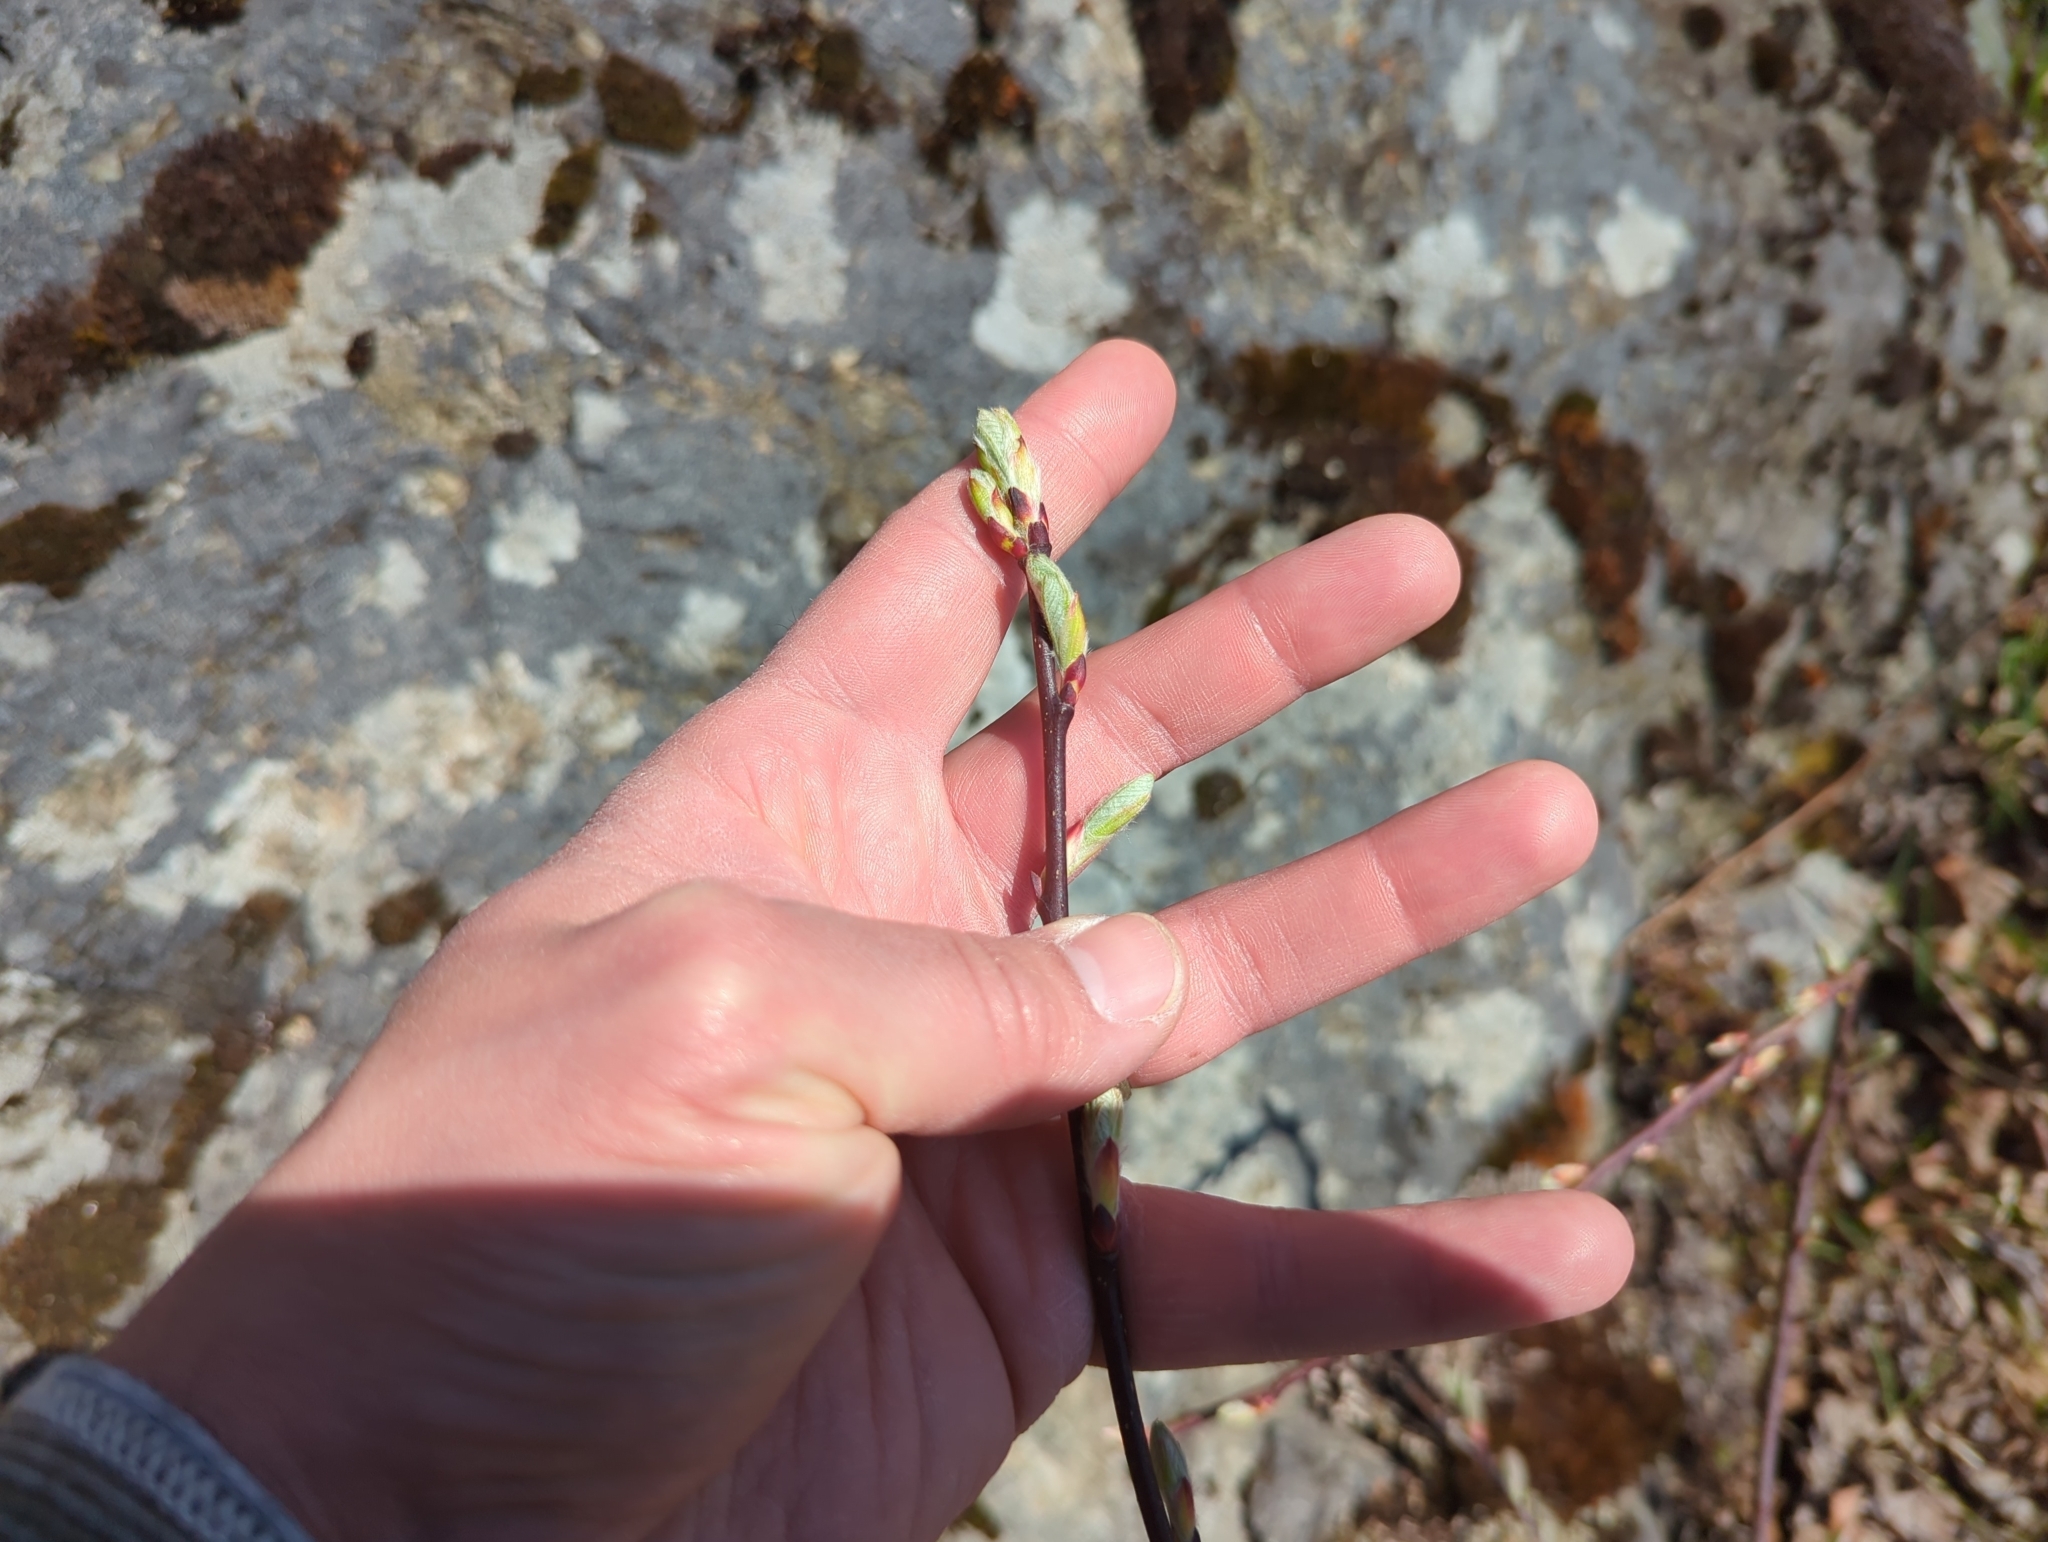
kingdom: Plantae
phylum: Tracheophyta
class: Magnoliopsida
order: Rosales
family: Rosaceae
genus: Amelanchier
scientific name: Amelanchier alnifolia
